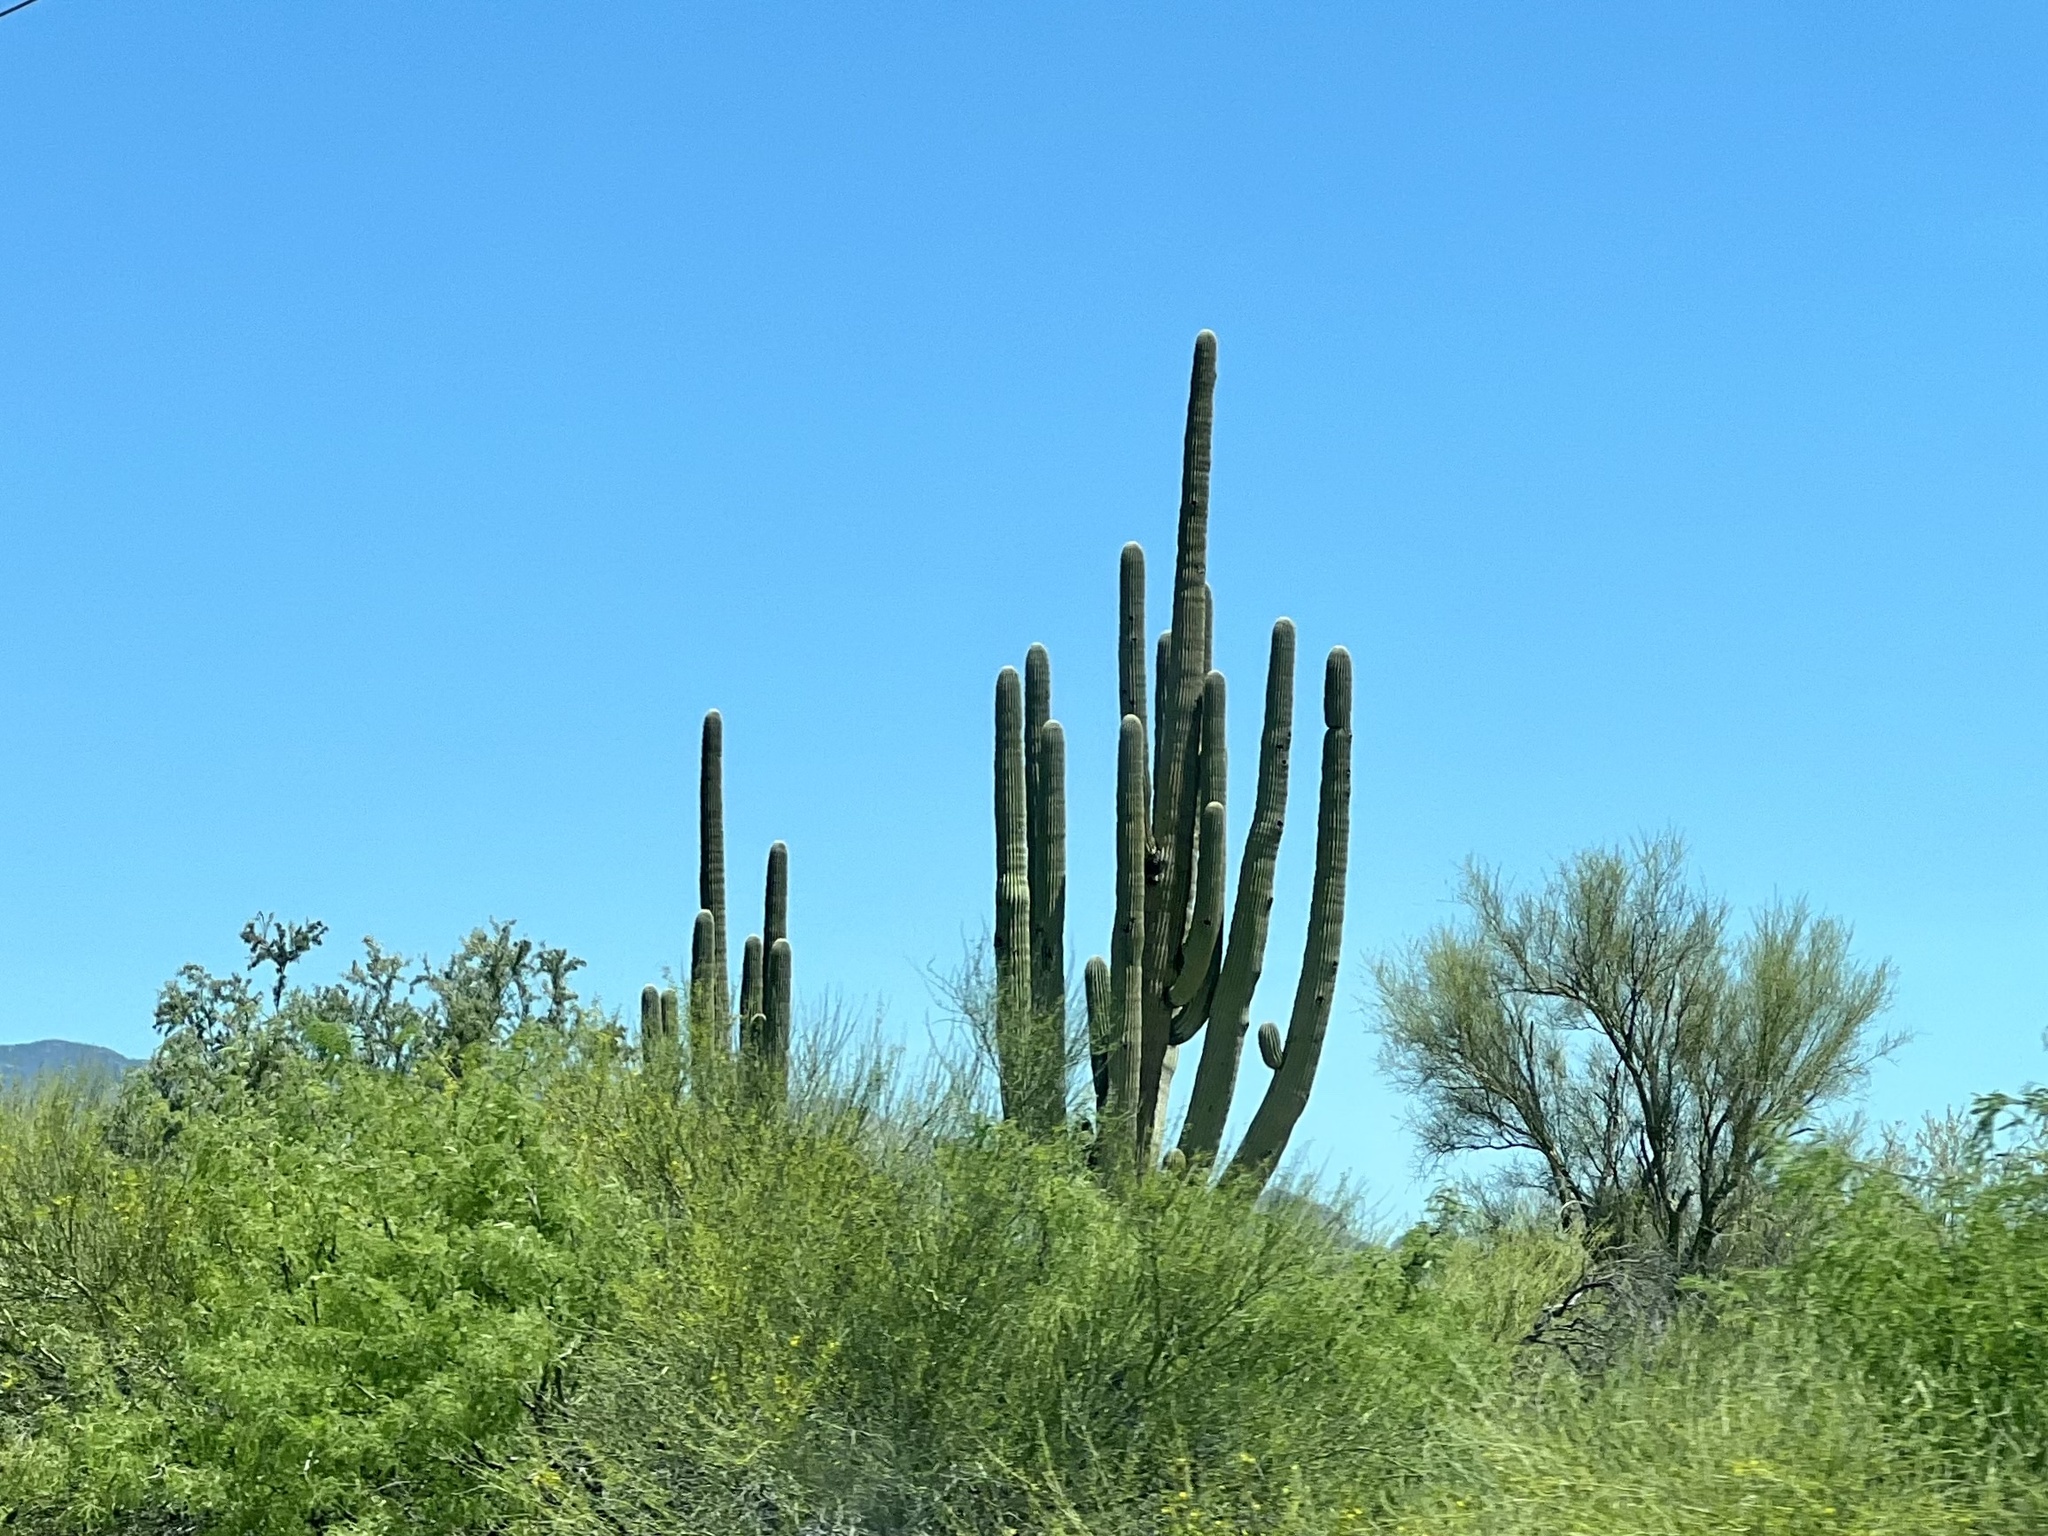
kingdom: Plantae
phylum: Tracheophyta
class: Magnoliopsida
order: Caryophyllales
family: Cactaceae
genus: Carnegiea
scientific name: Carnegiea gigantea
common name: Saguaro
